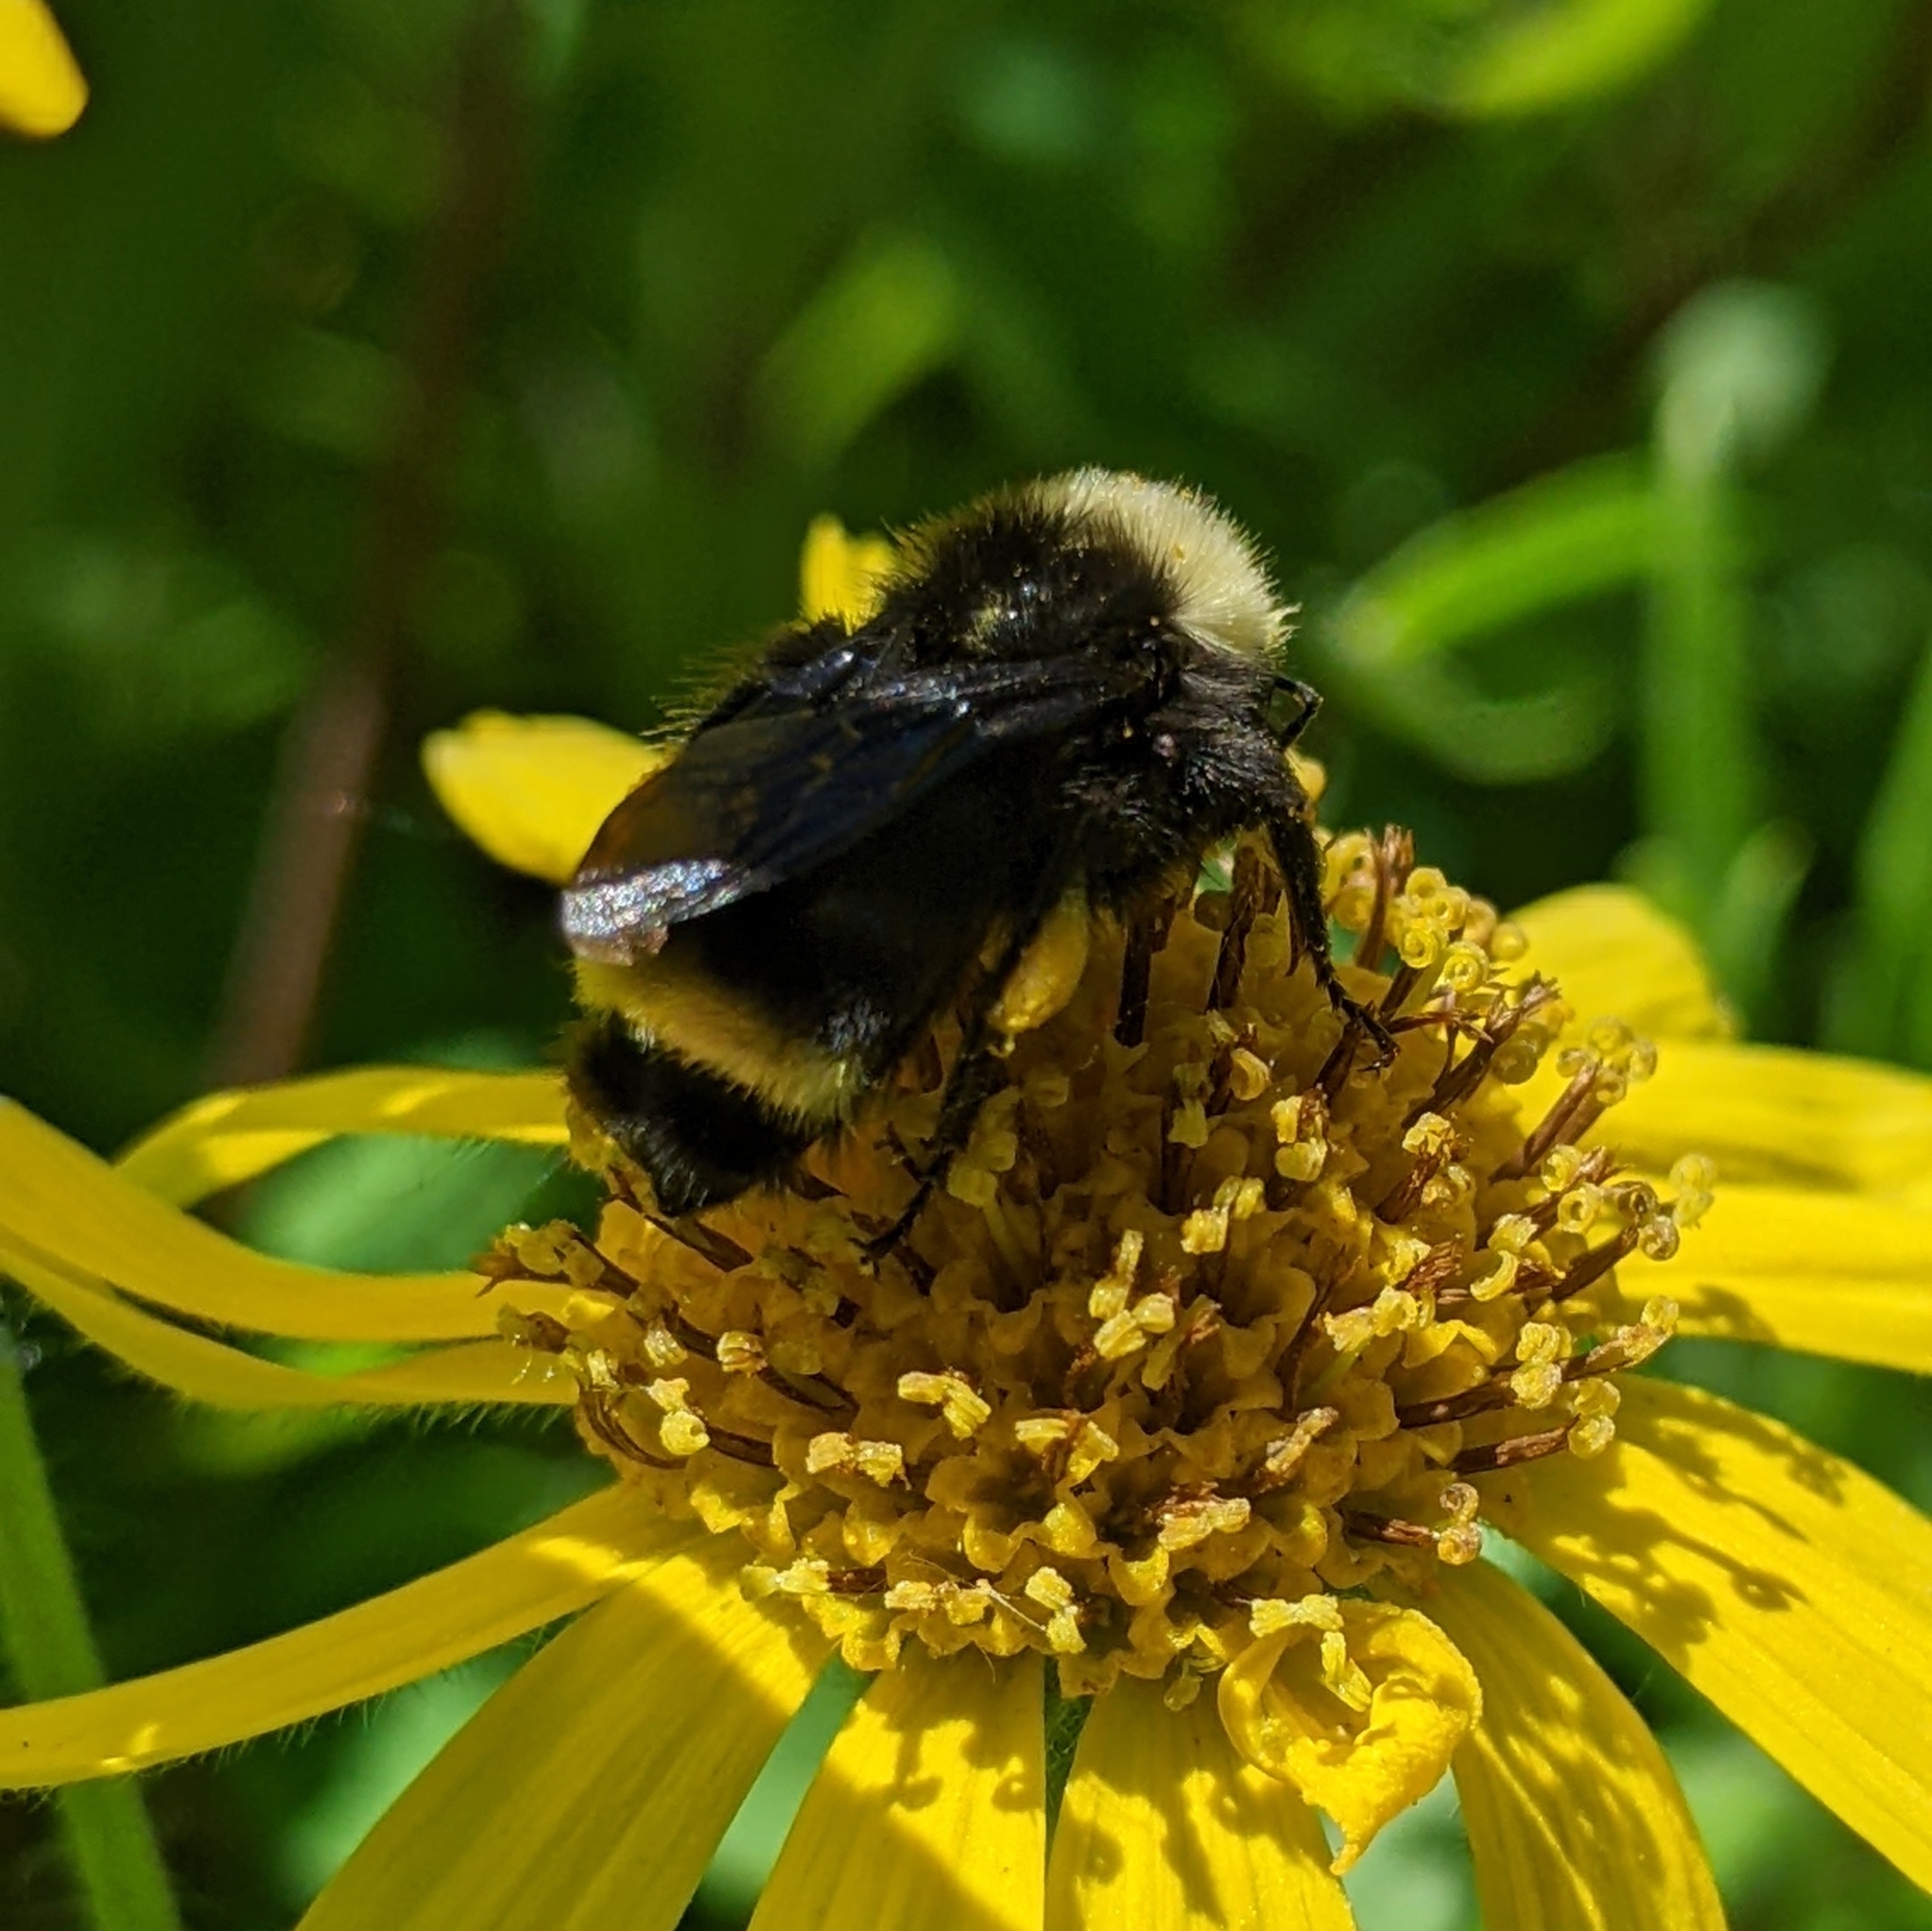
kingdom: Animalia
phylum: Arthropoda
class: Insecta
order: Hymenoptera
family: Apidae
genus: Bombus
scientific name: Bombus vosnesenskii
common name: Vosnesensky bumble bee
